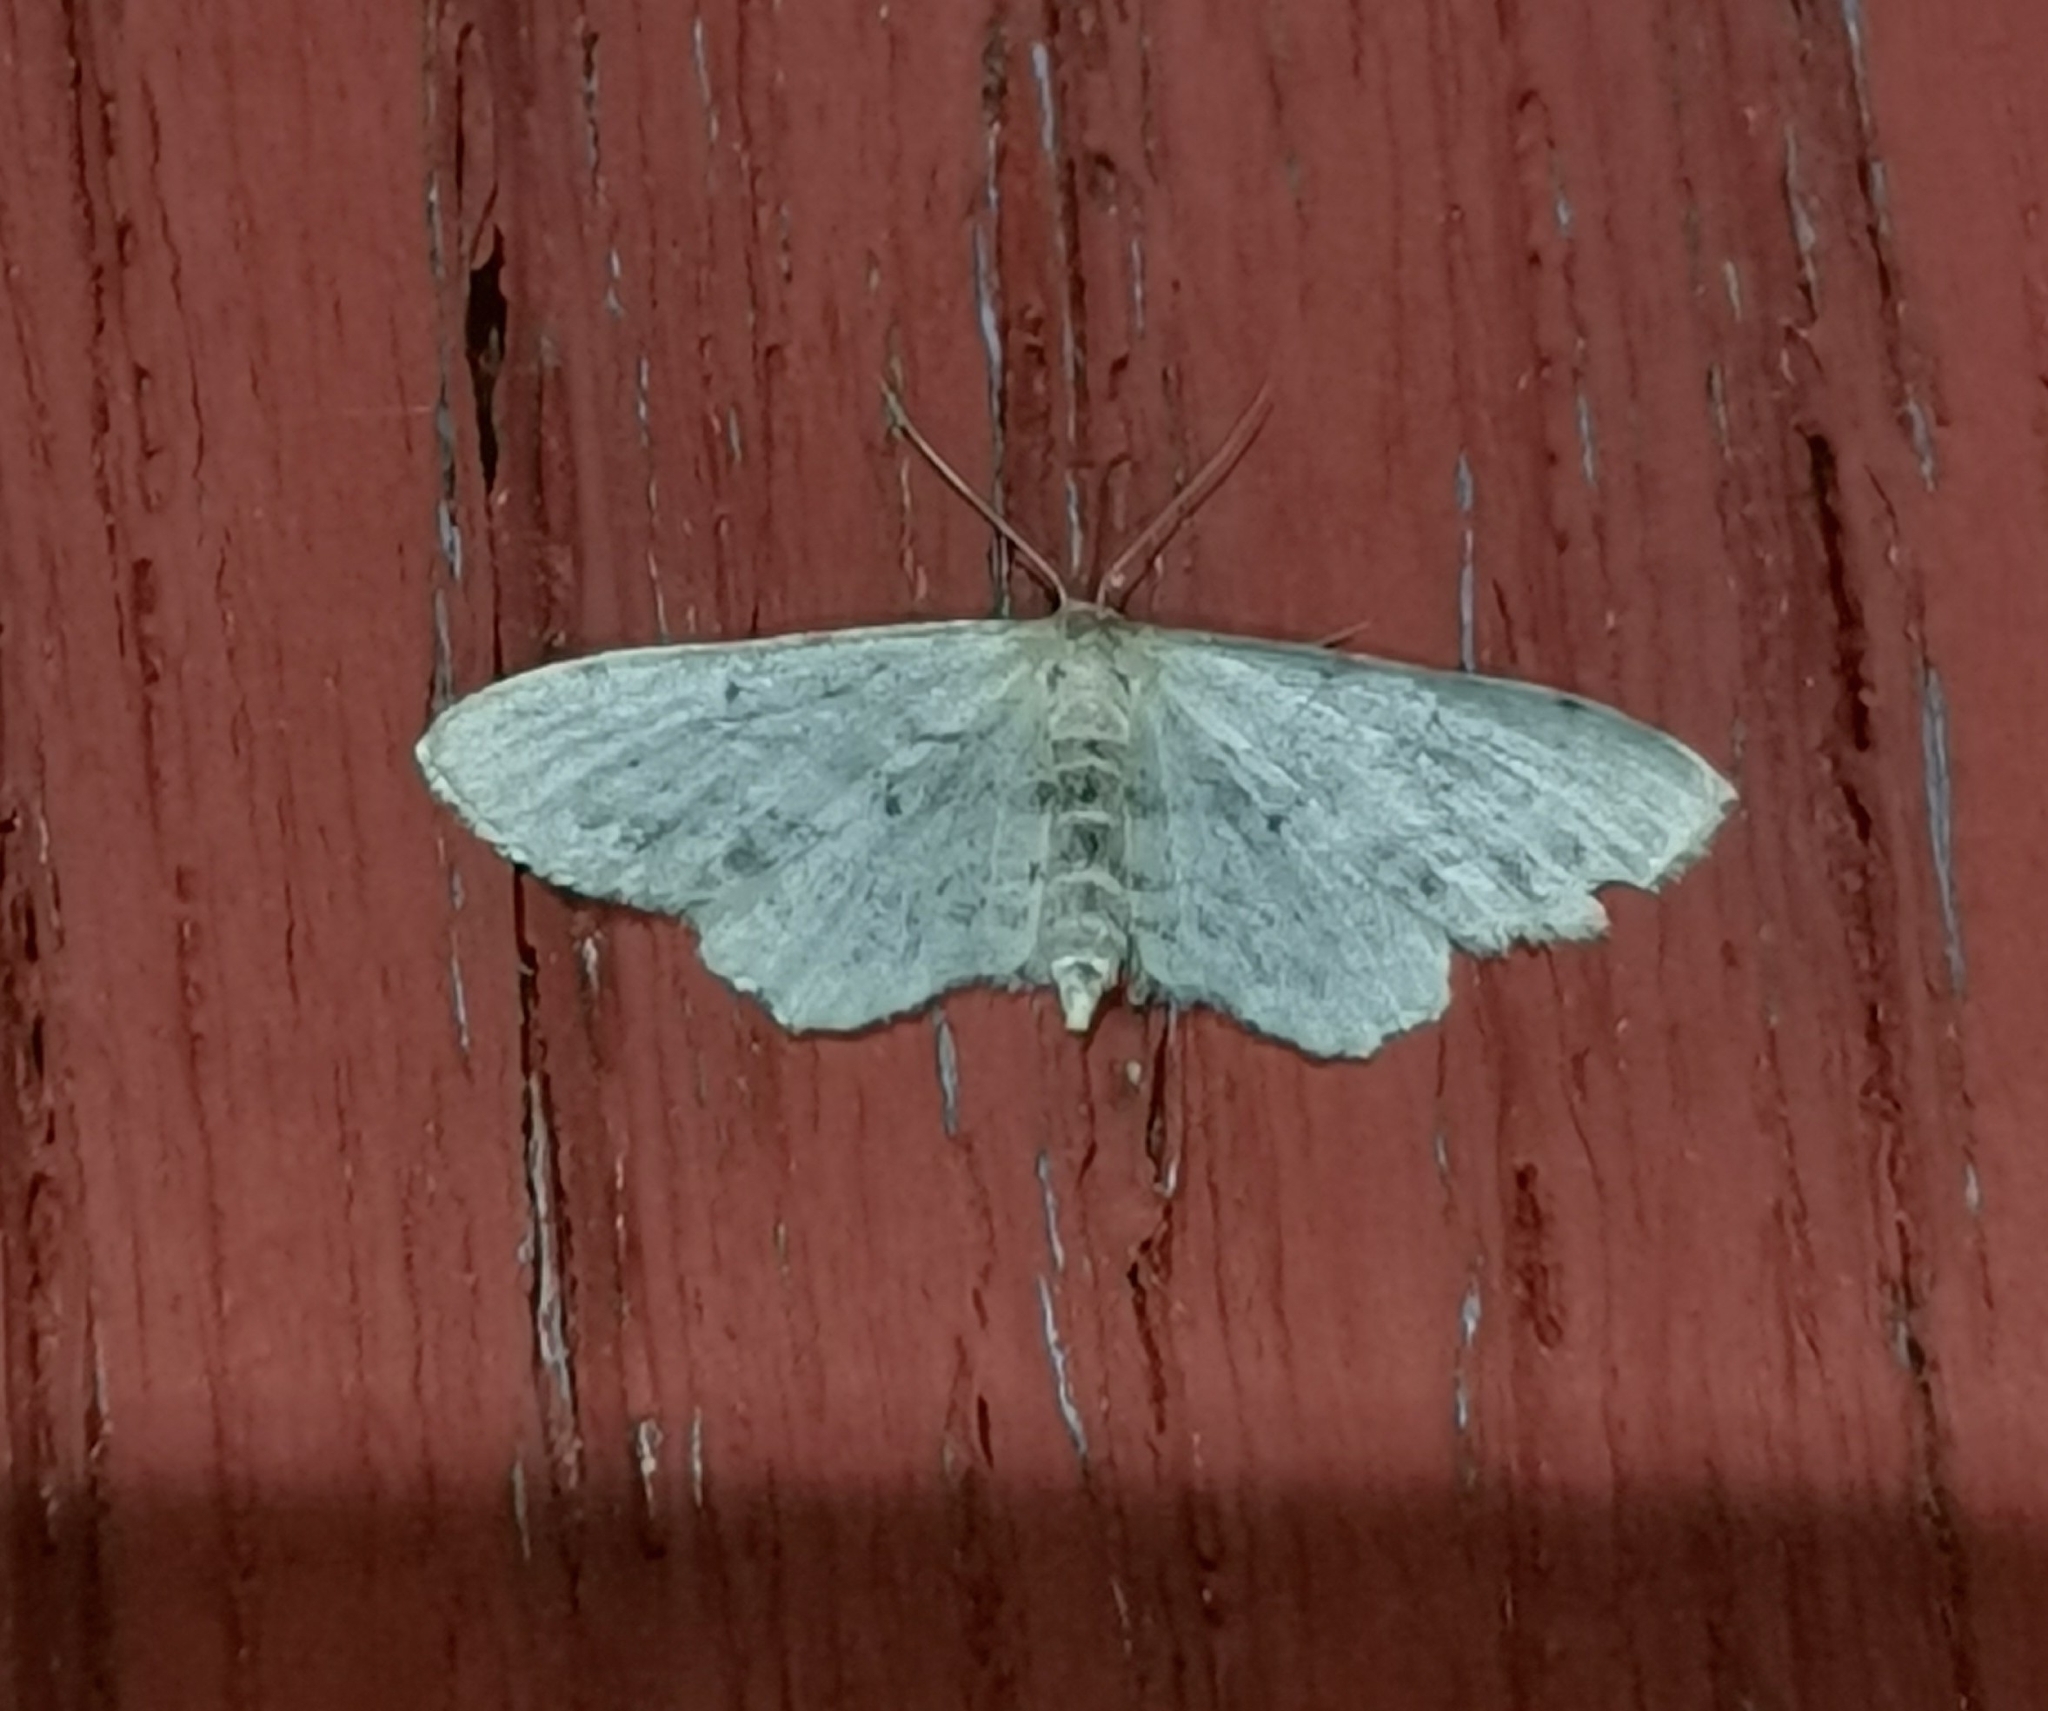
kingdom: Animalia
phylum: Arthropoda
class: Insecta
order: Lepidoptera
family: Geometridae
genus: Idaea
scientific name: Idaea dimidiata
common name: Single-dotted wave
